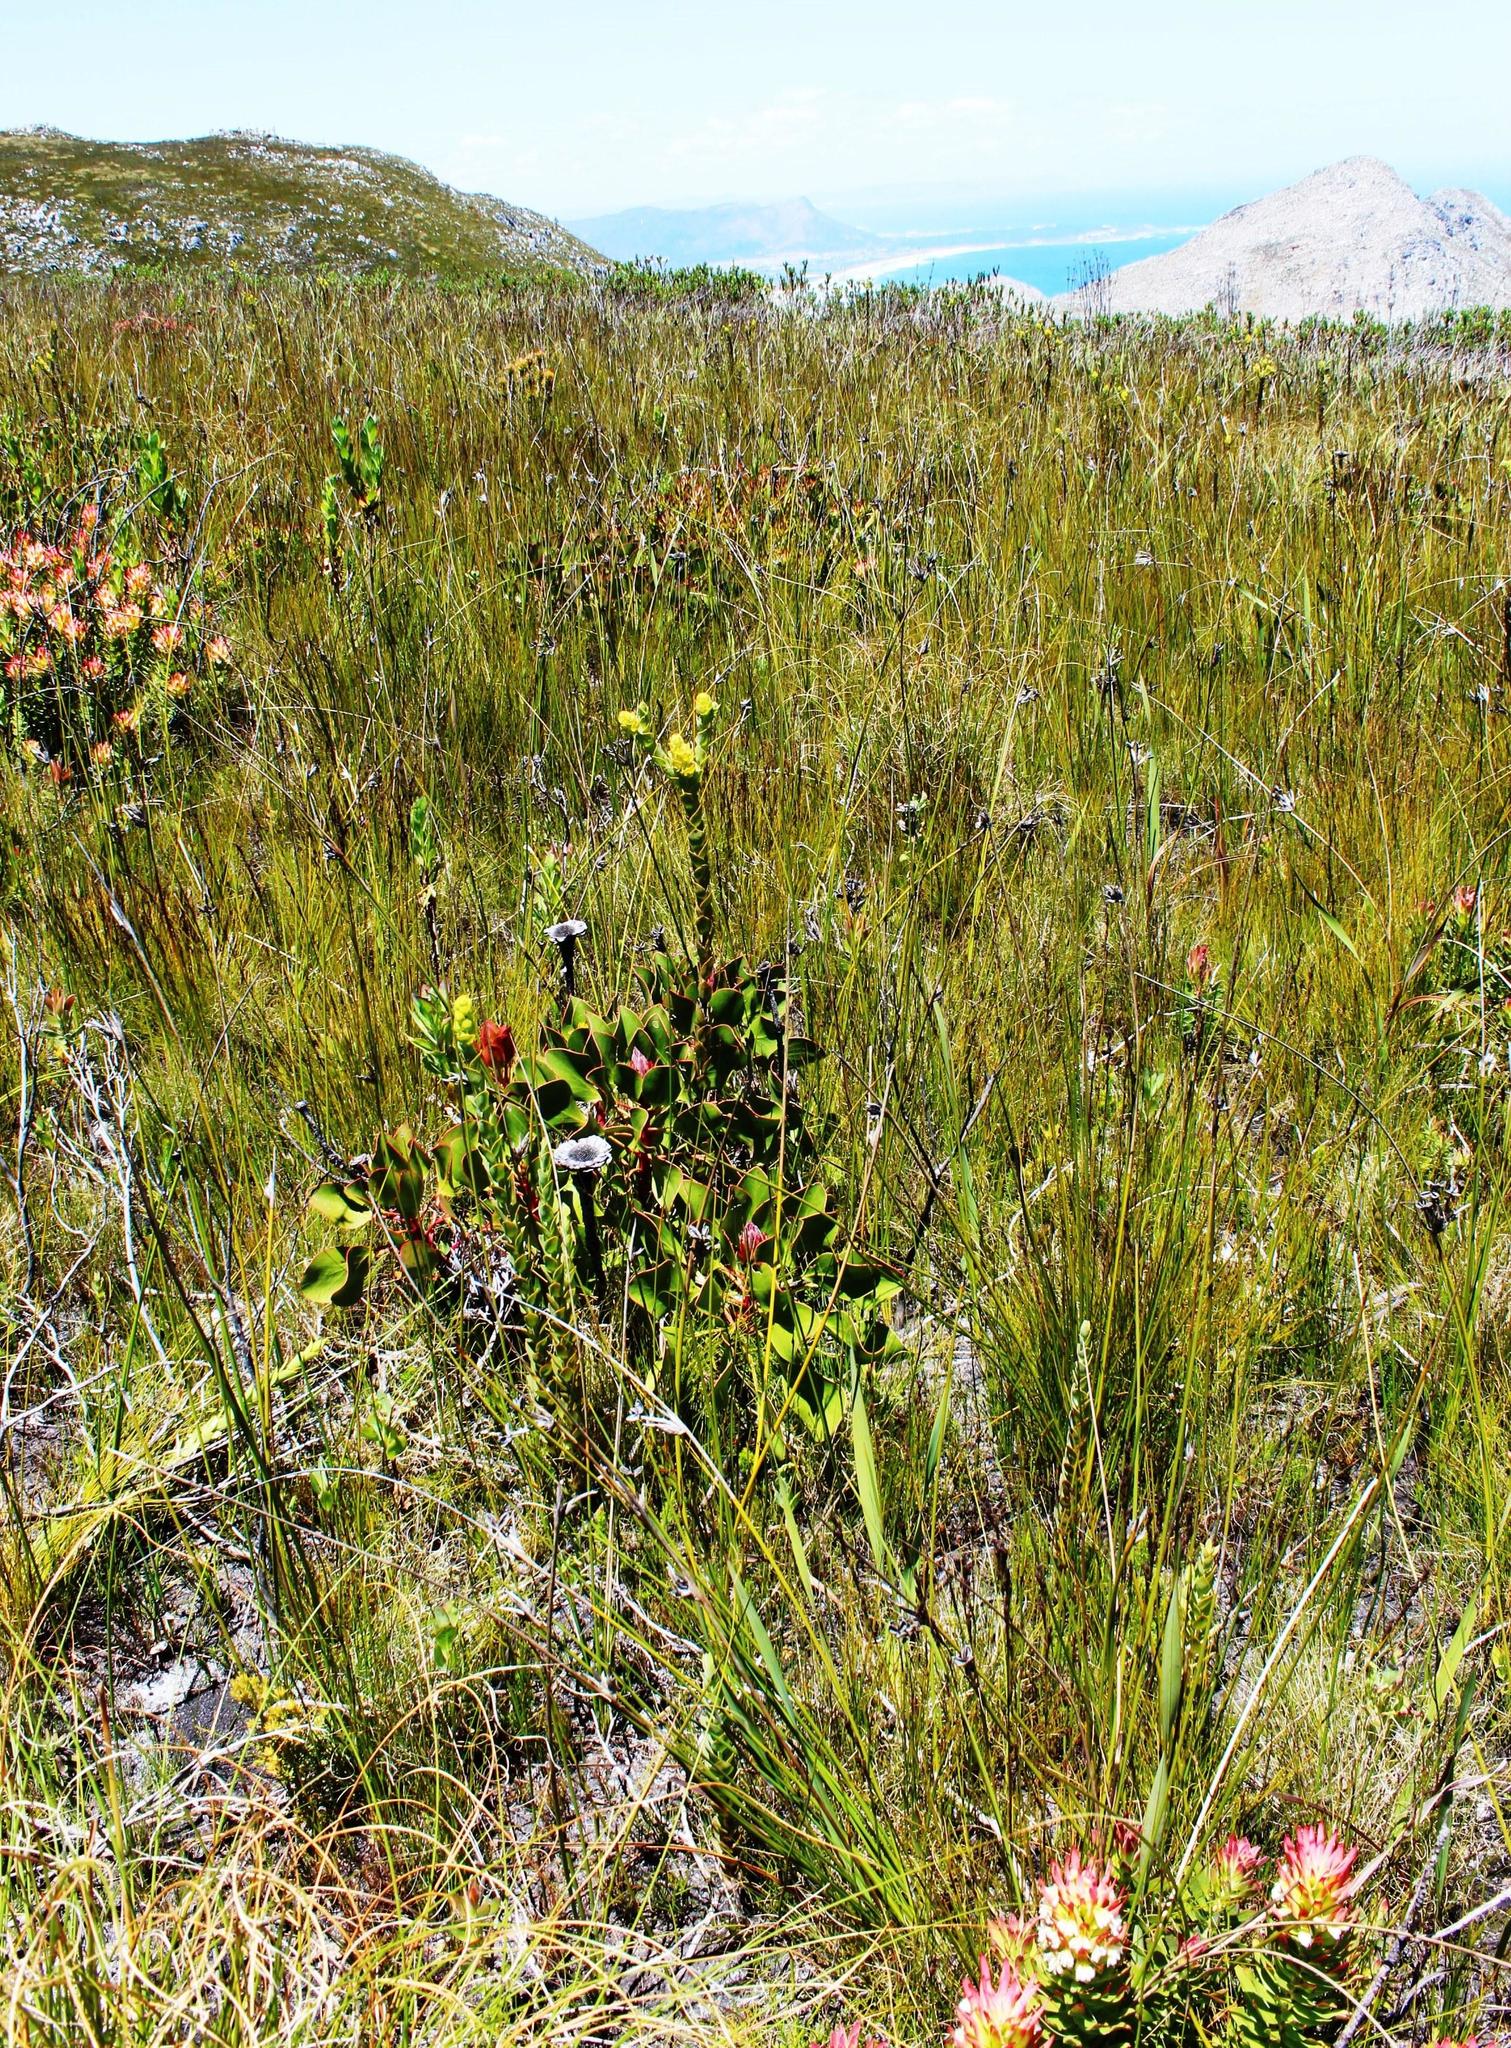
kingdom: Plantae
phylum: Tracheophyta
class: Magnoliopsida
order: Proteales
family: Proteaceae
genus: Protea
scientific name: Protea cynaroides
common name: King protea
